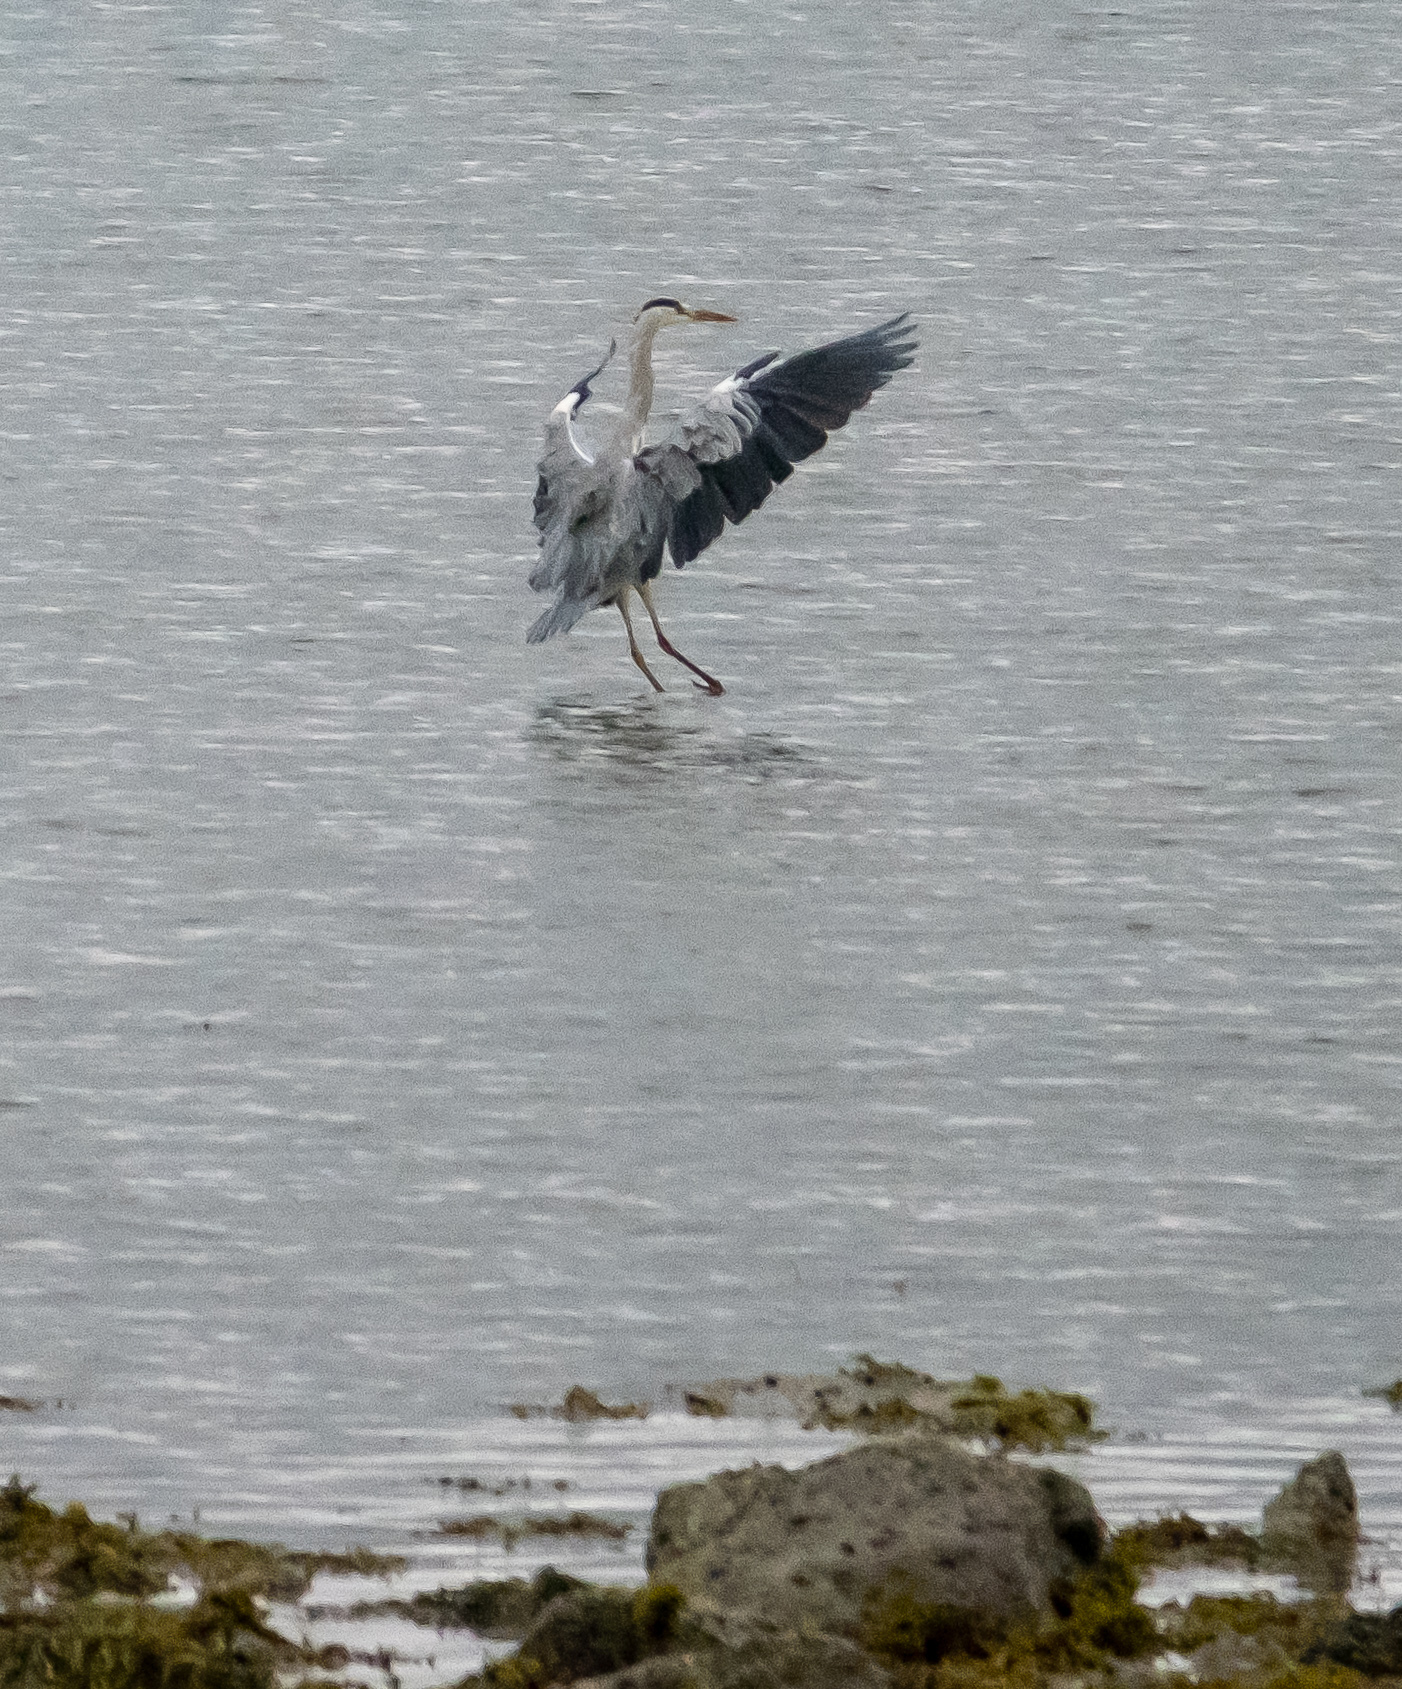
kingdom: Animalia
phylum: Chordata
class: Aves
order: Pelecaniformes
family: Ardeidae
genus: Ardea
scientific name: Ardea cinerea
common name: Grey heron
